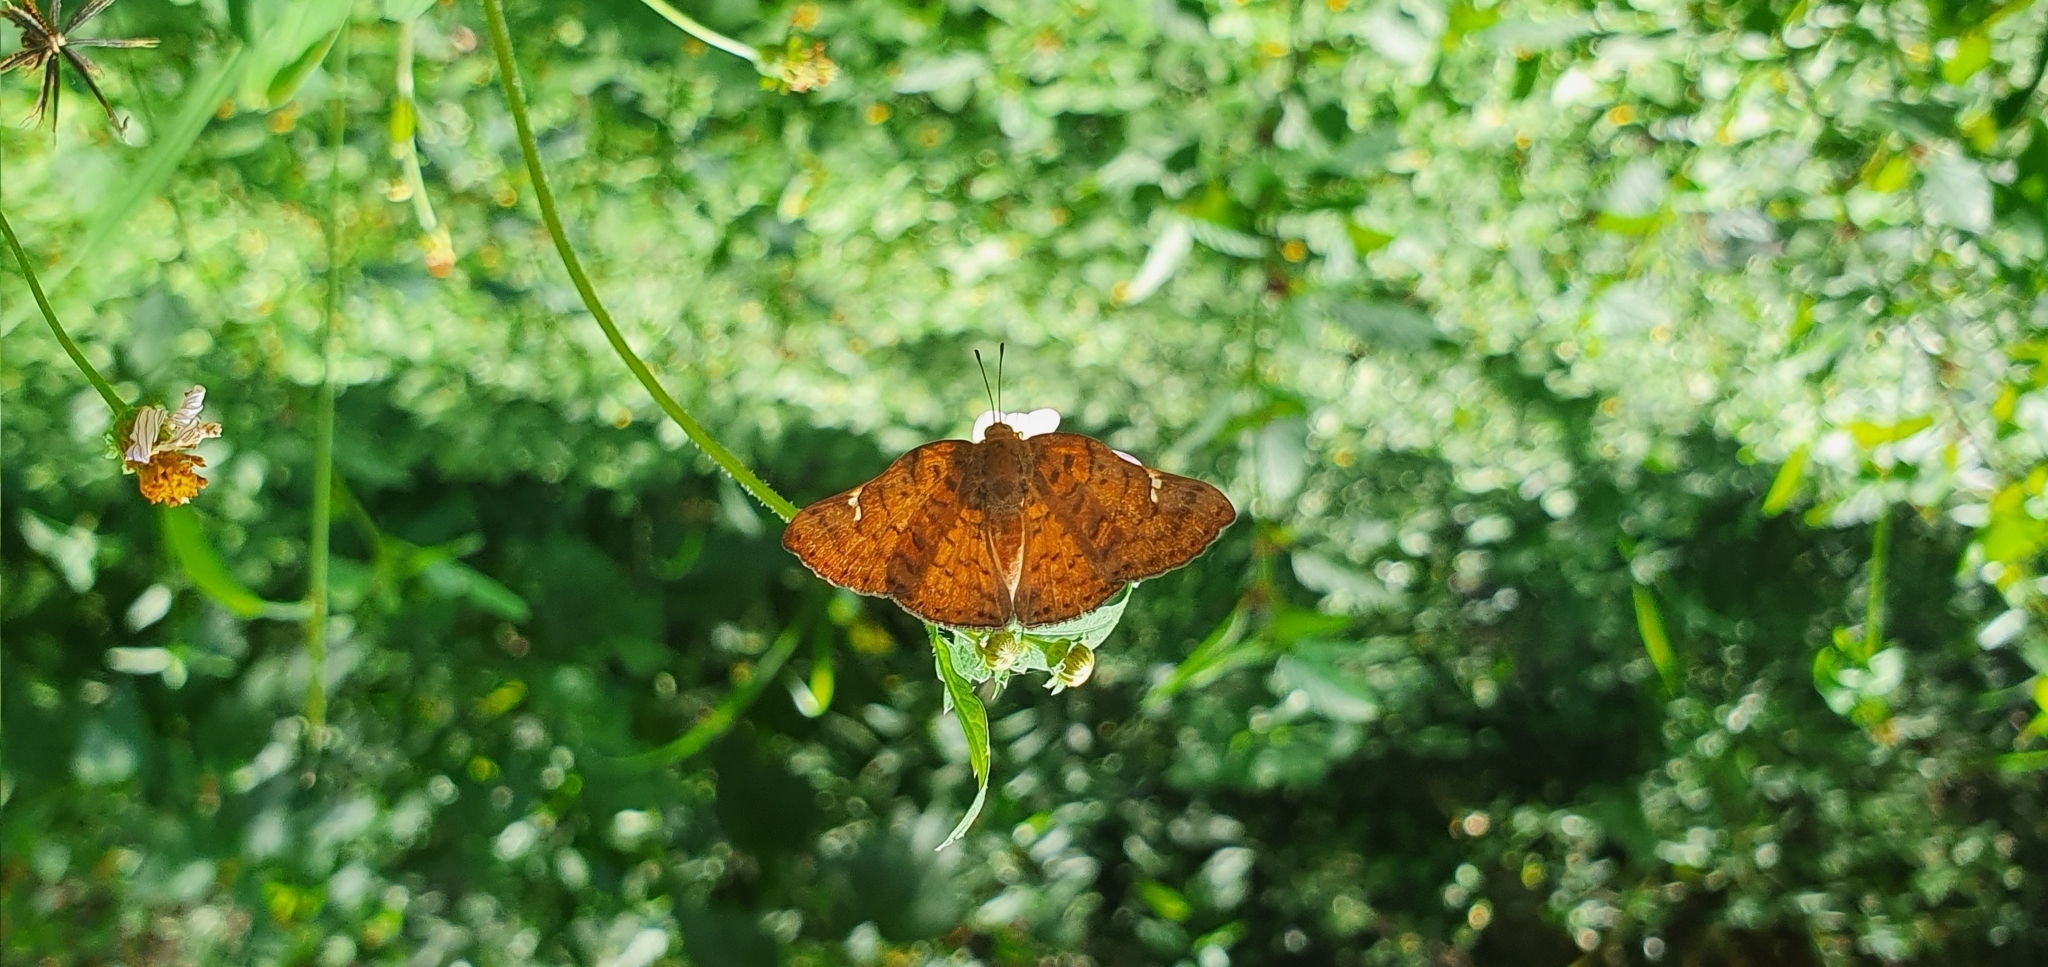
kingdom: Animalia
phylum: Arthropoda
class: Insecta
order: Lepidoptera
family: Riodinidae
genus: Curvie
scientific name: Curvie emesia
